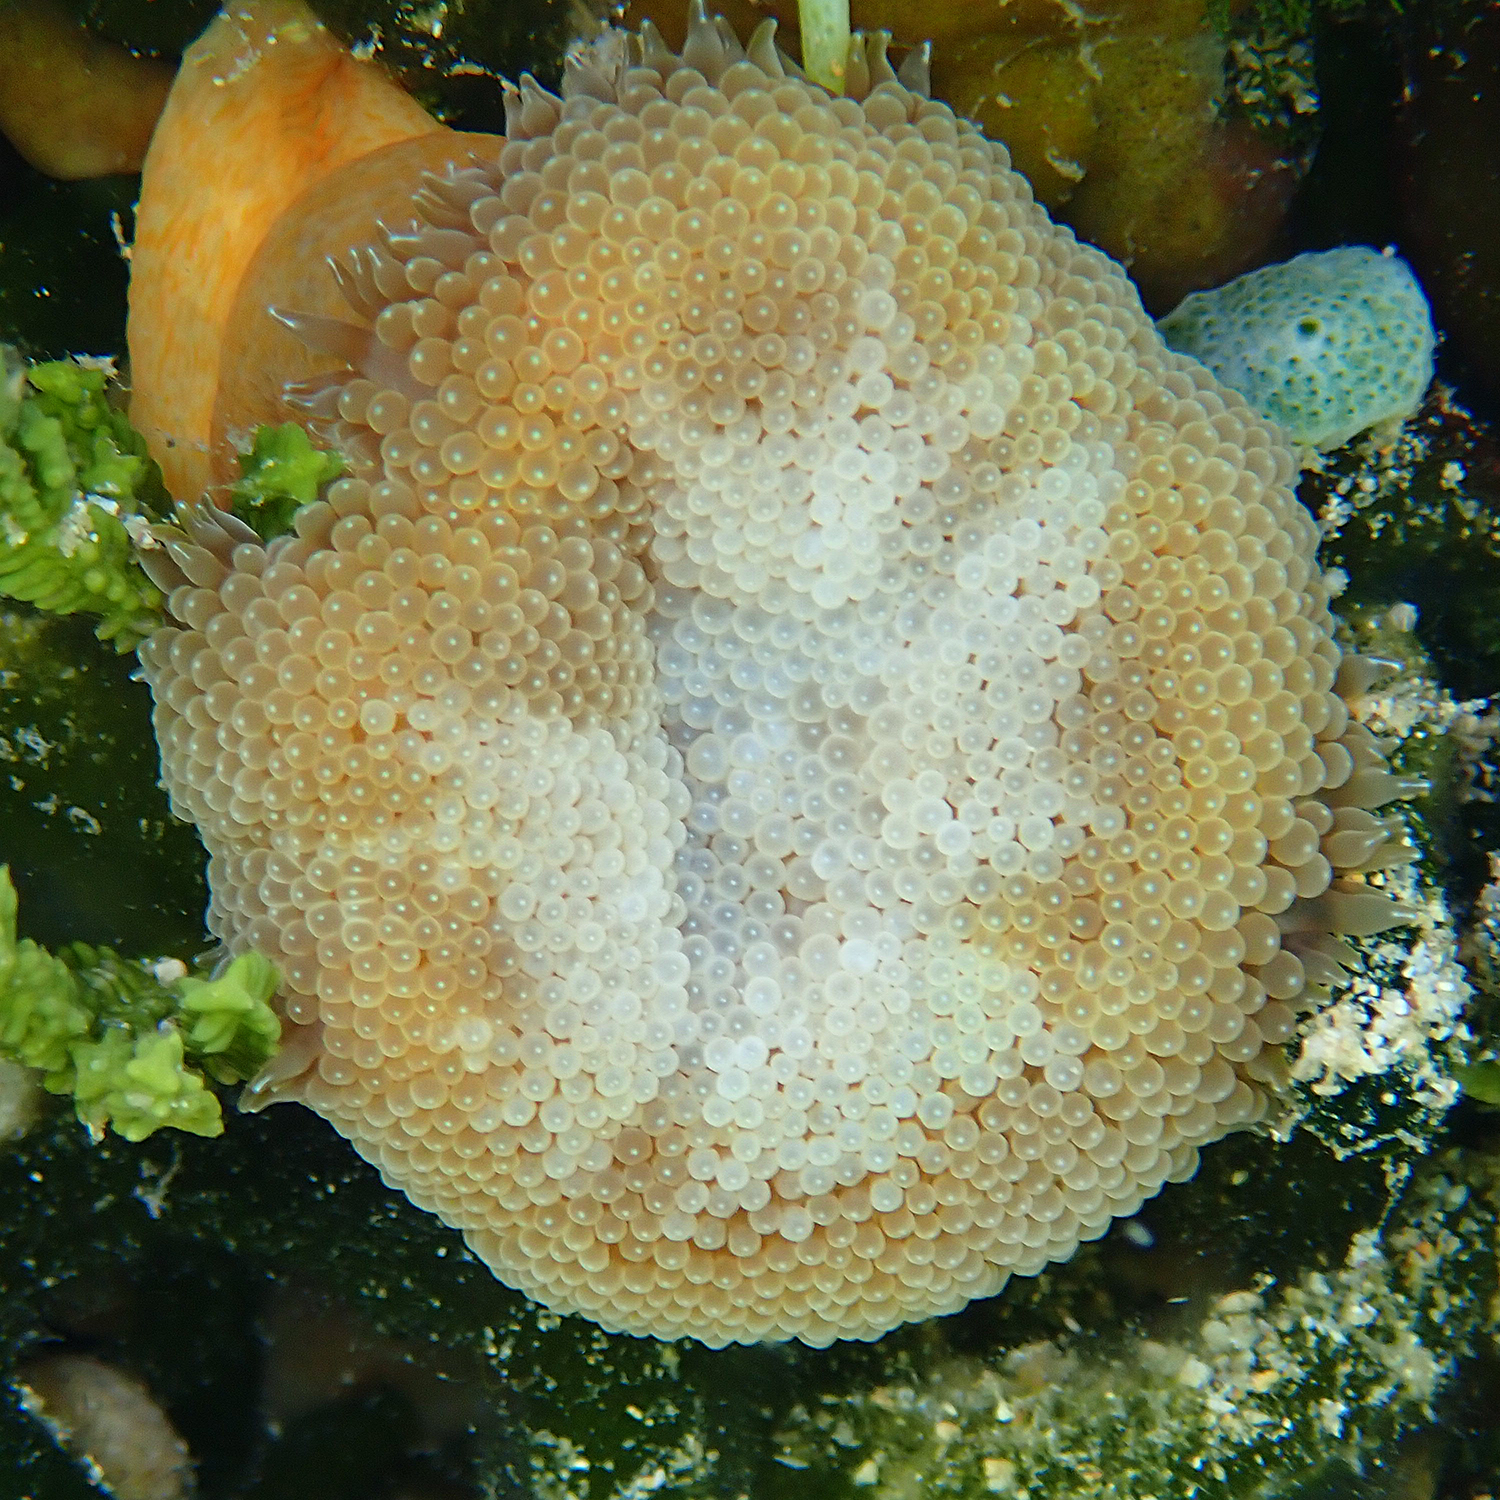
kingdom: Animalia
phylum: Cnidaria
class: Anthozoa
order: Actiniaria
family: Stichodactylidae
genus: Stichodactyla
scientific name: Stichodactyla tapetum
